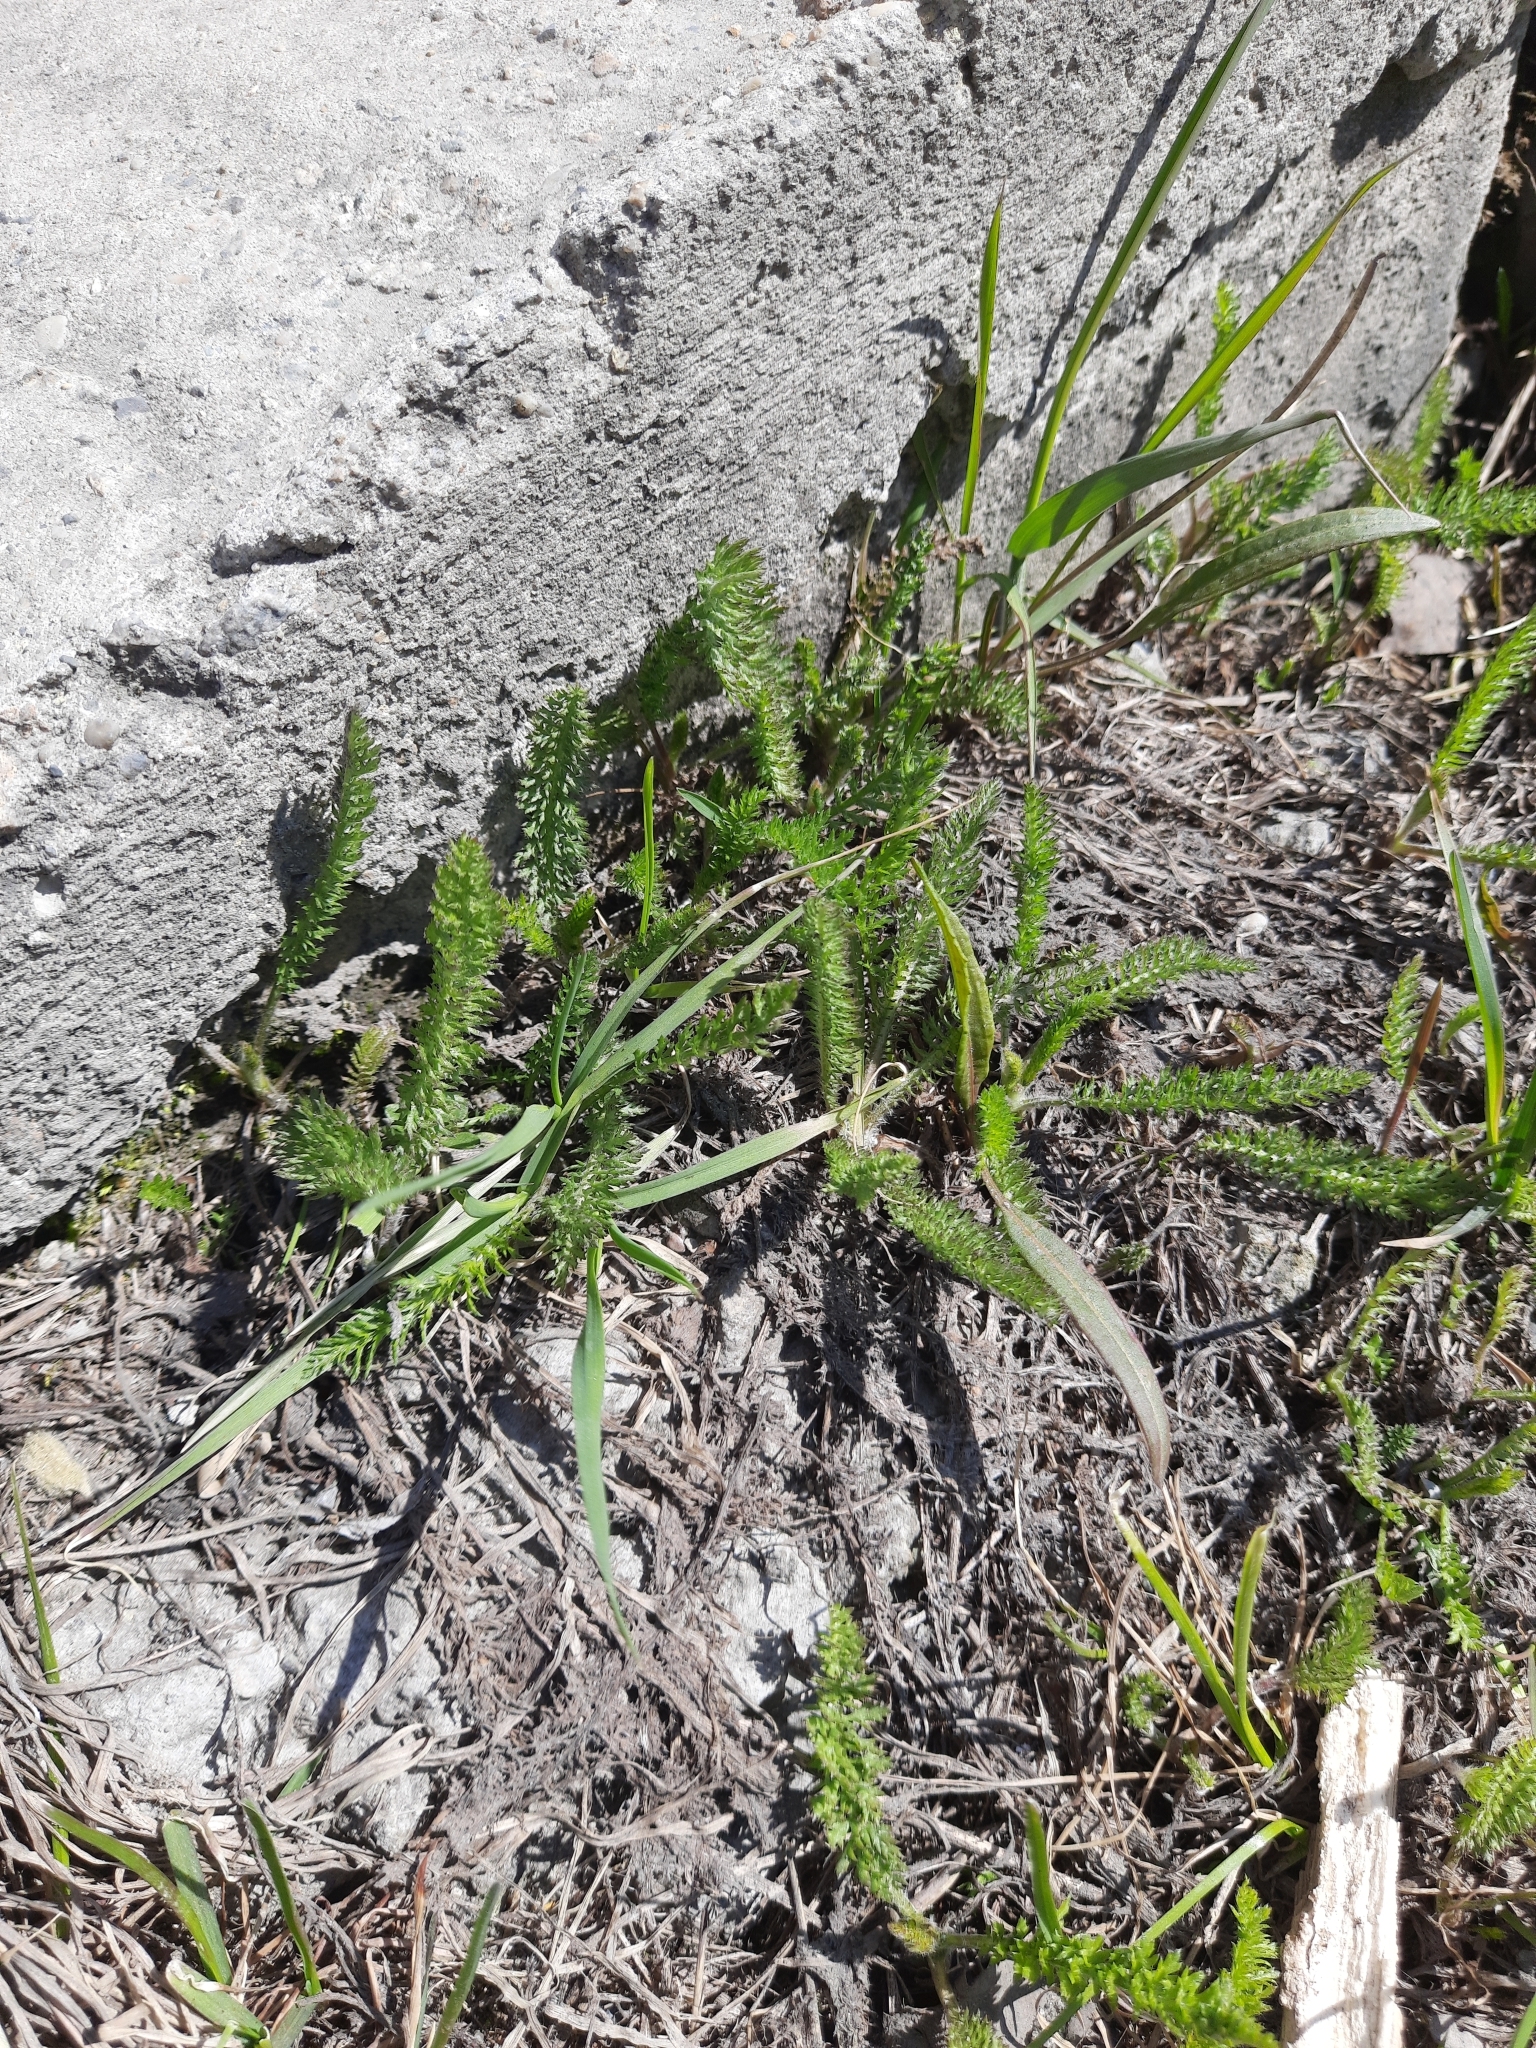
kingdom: Plantae
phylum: Tracheophyta
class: Magnoliopsida
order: Asterales
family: Asteraceae
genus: Achillea
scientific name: Achillea millefolium
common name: Yarrow
